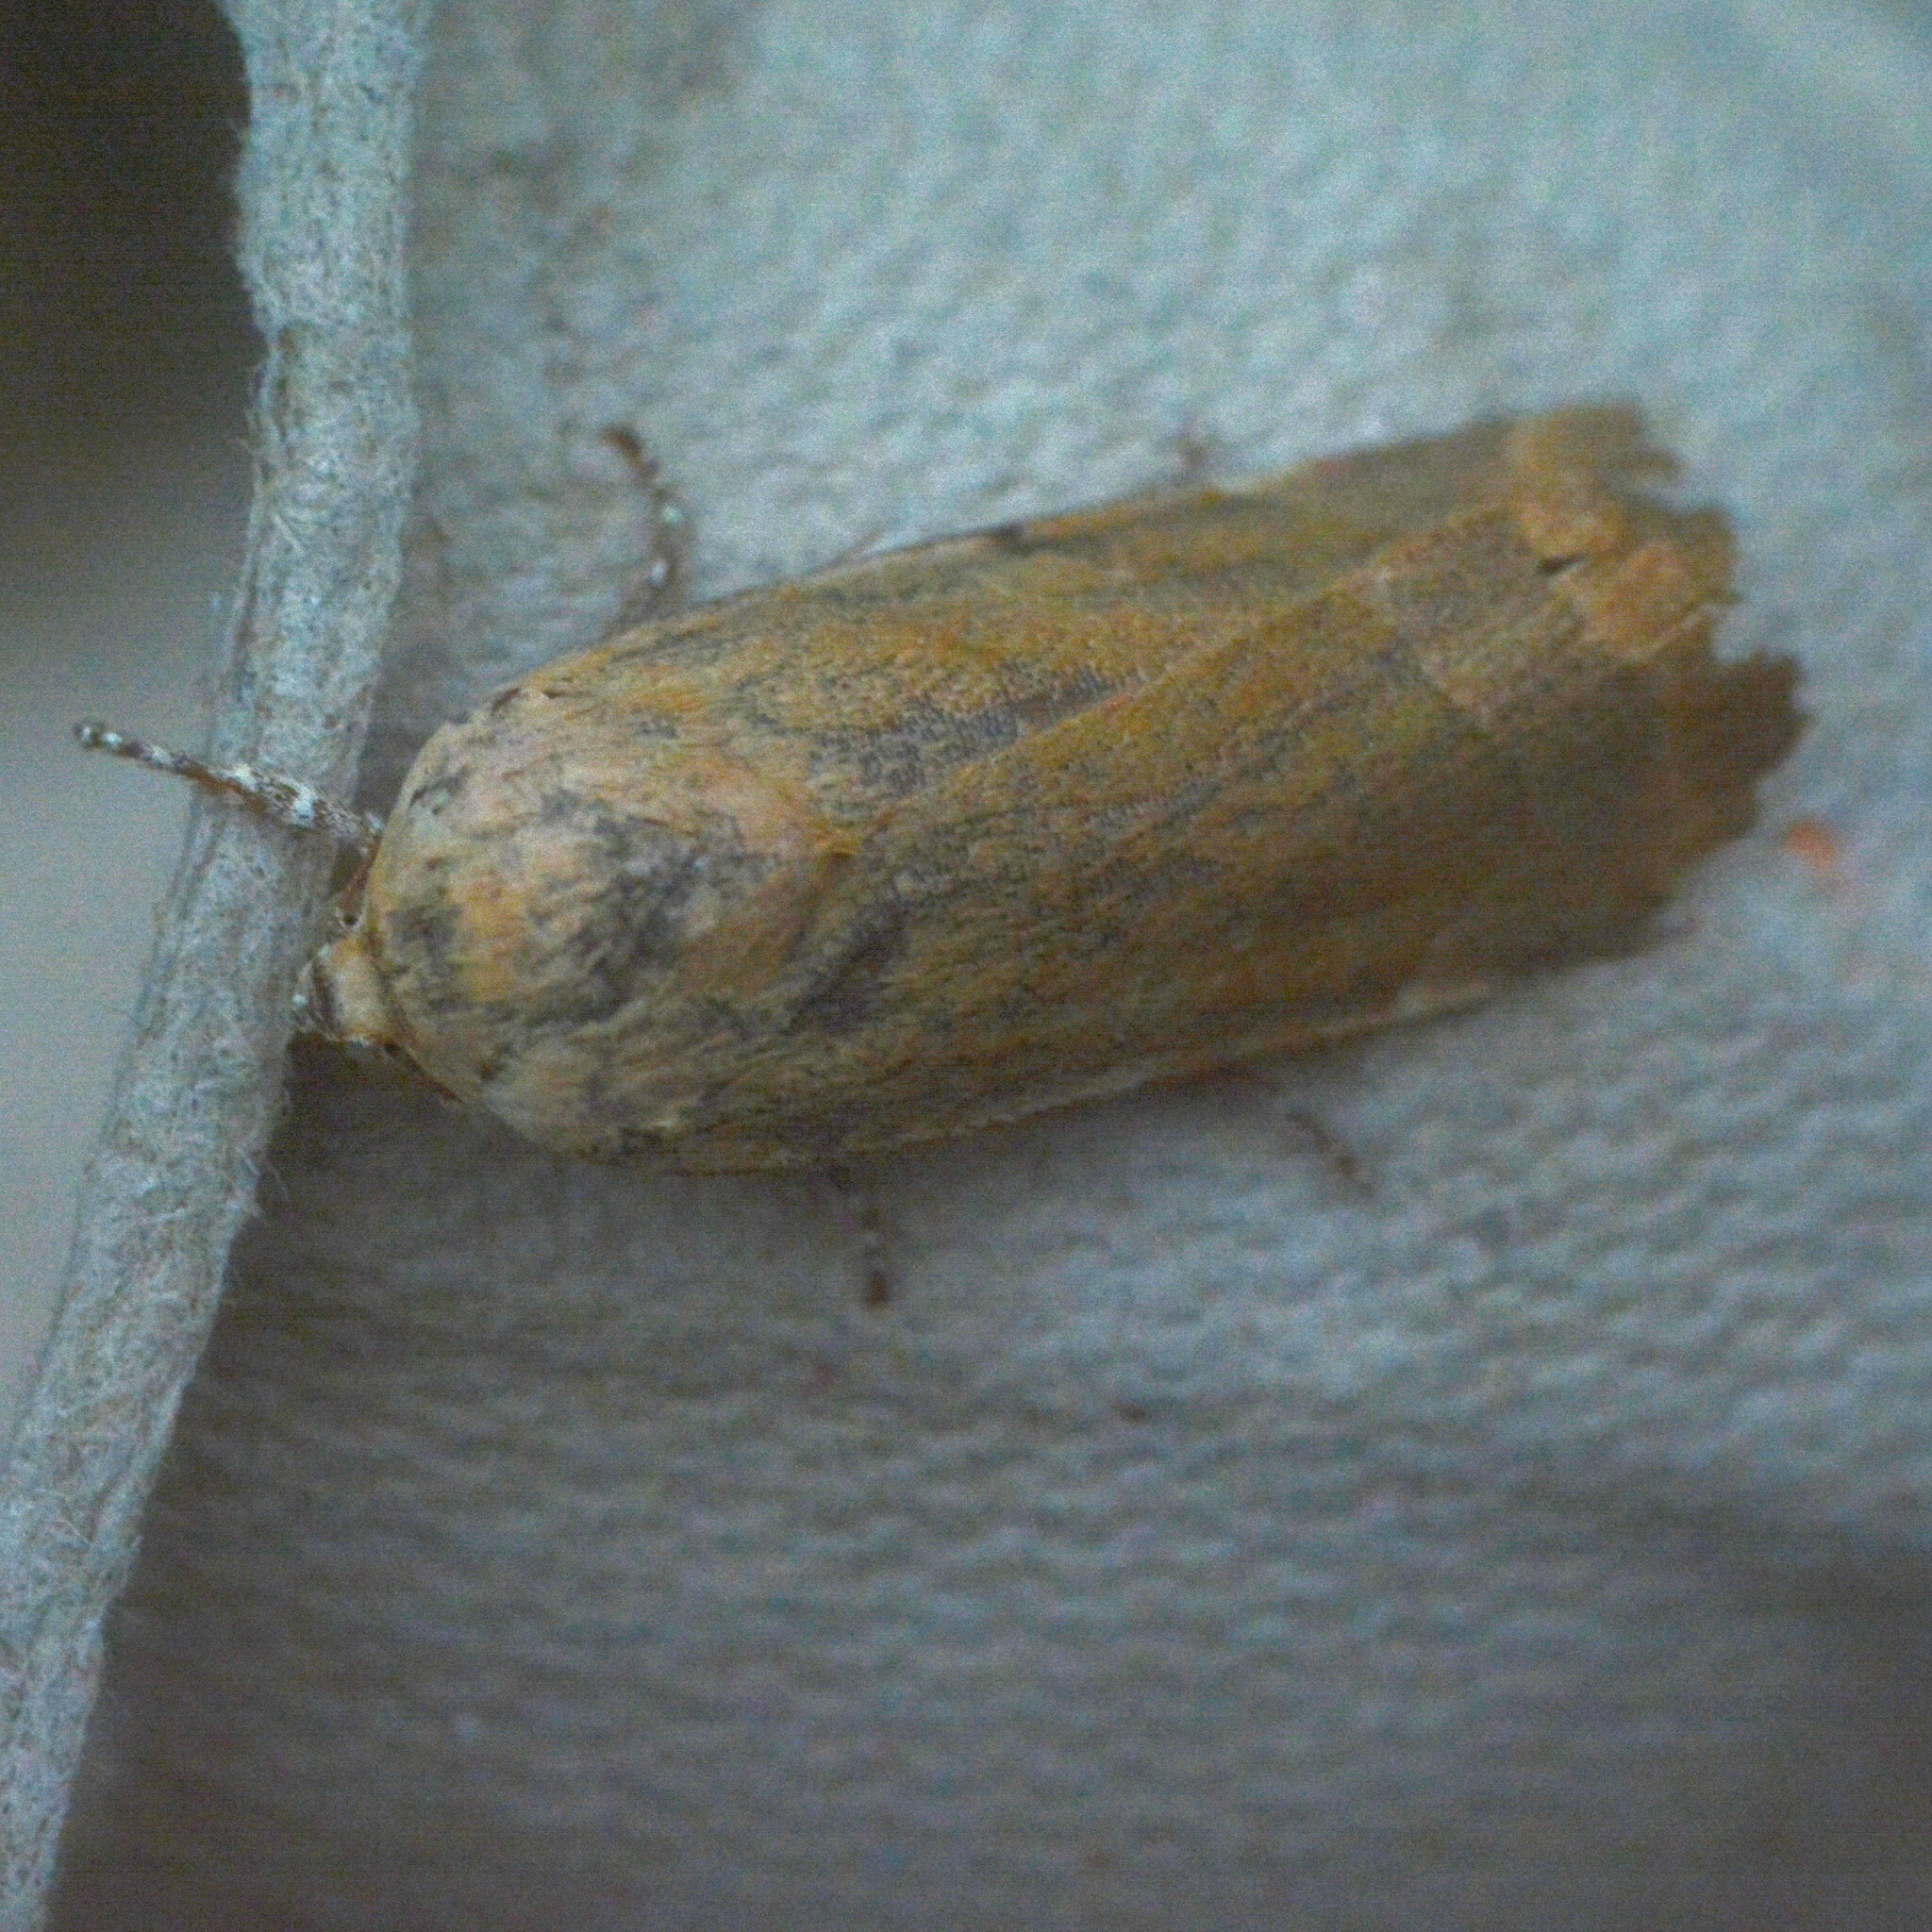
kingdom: Animalia
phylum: Arthropoda
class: Insecta
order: Lepidoptera
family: Noctuidae
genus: Noctua
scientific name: Noctua fimbriata
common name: Broad-bordered yellow underwing
